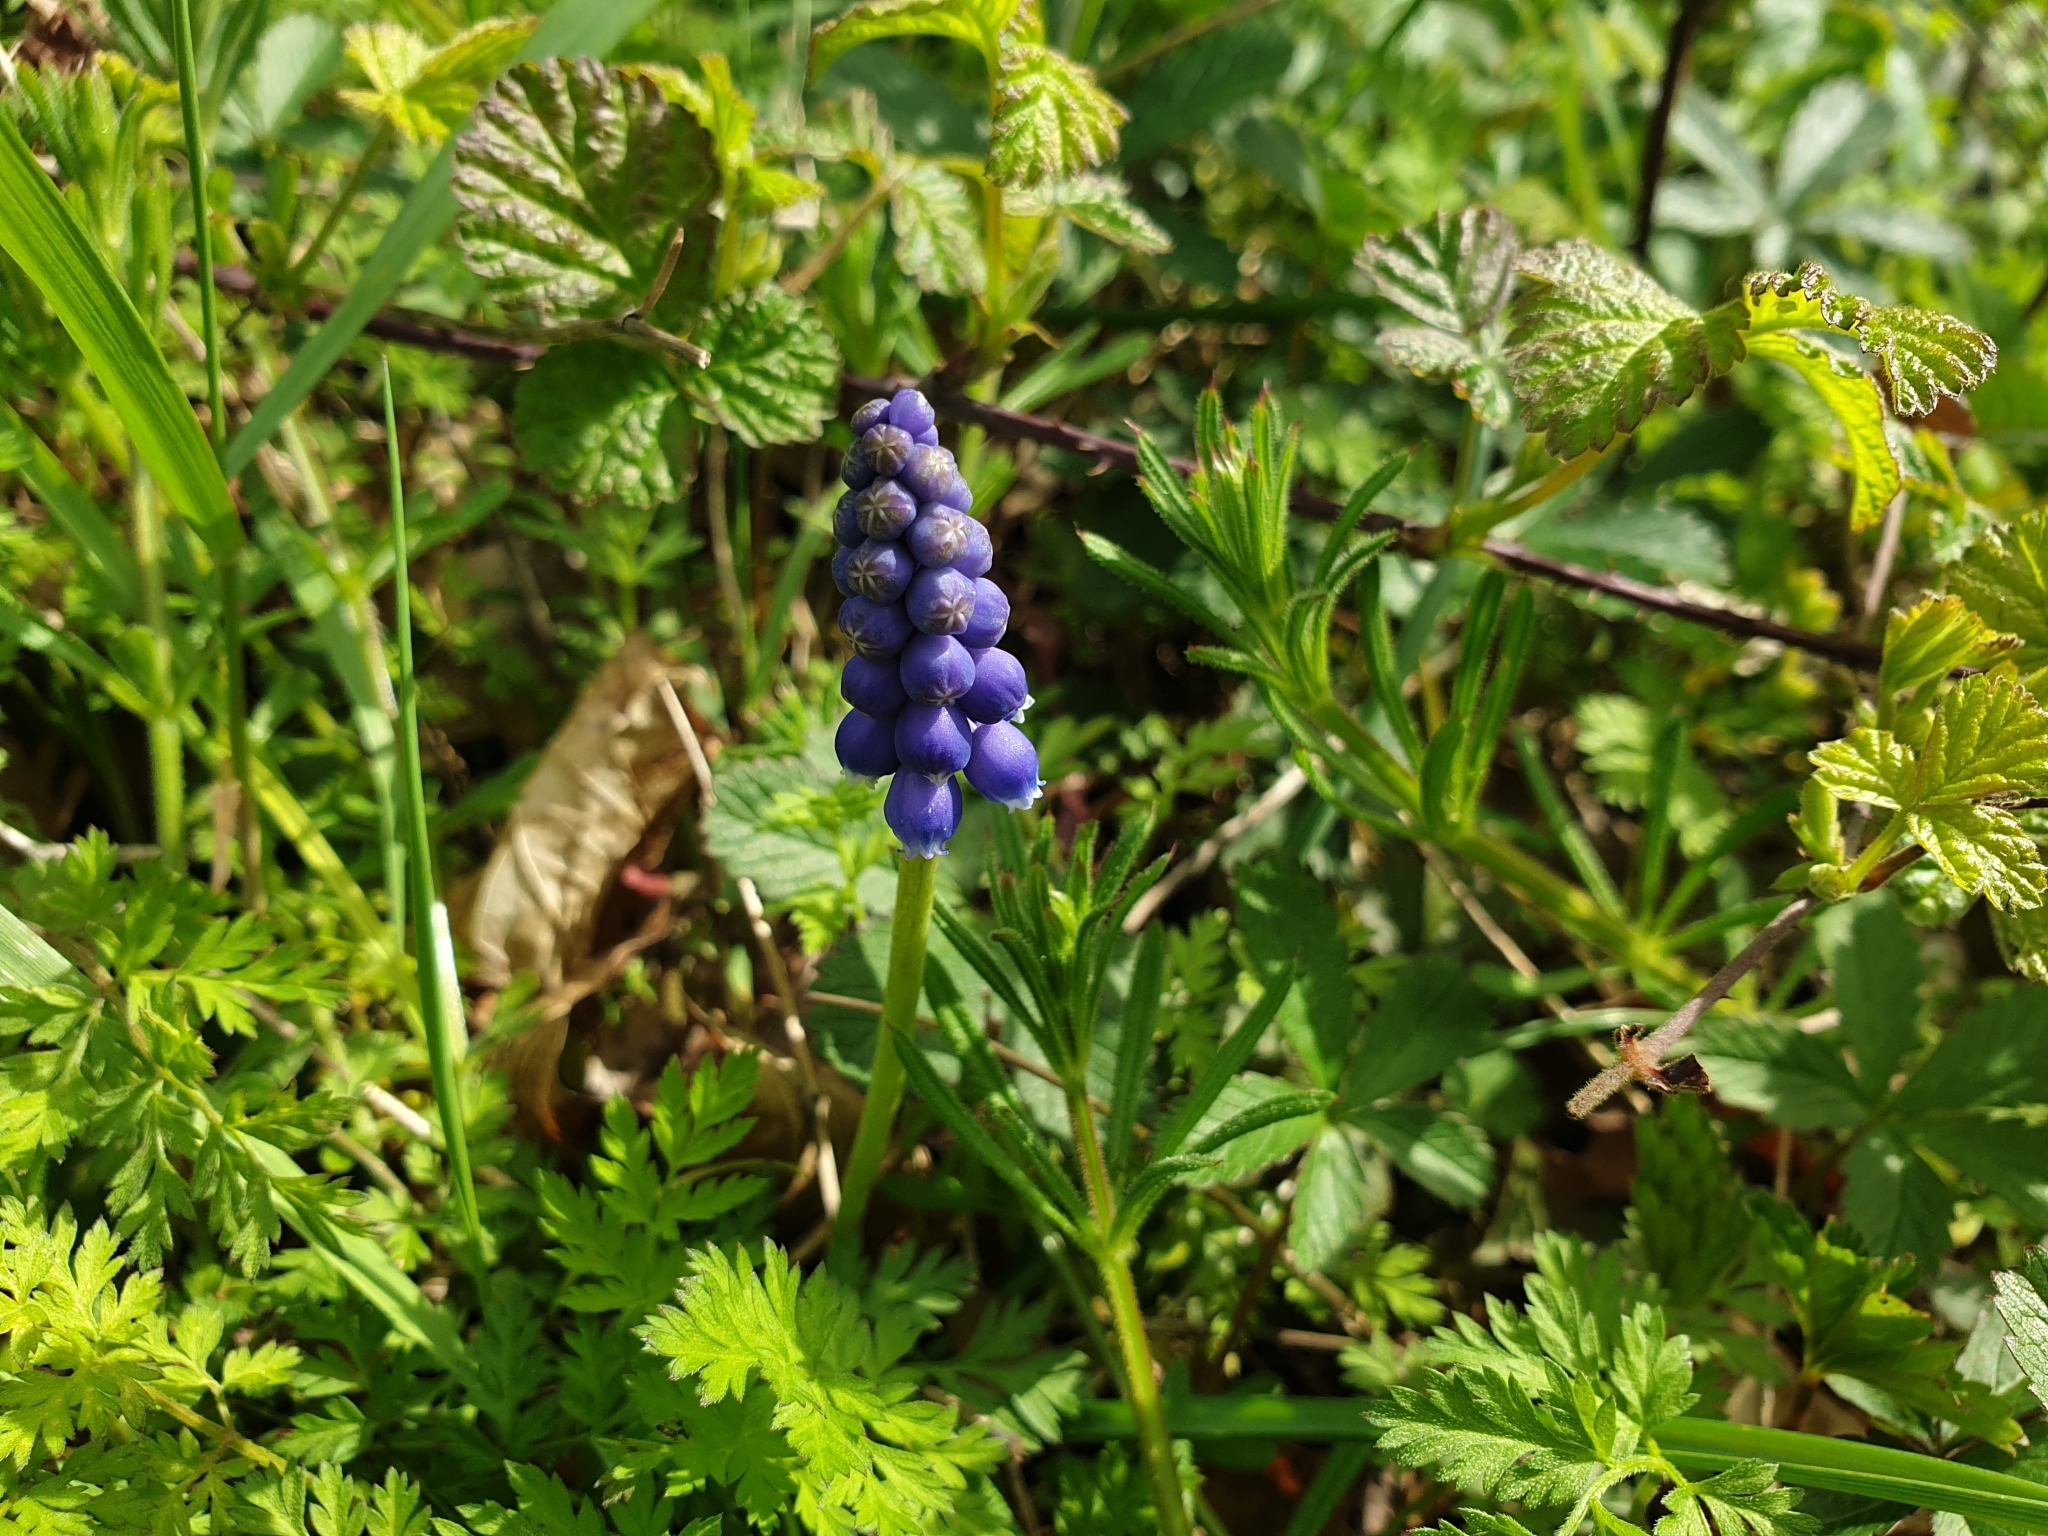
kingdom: Plantae
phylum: Tracheophyta
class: Liliopsida
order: Asparagales
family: Asparagaceae
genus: Muscari
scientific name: Muscari armeniacum
